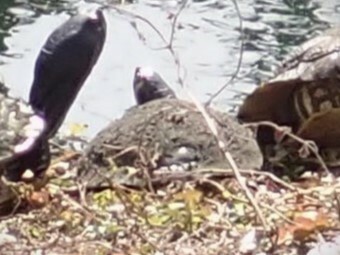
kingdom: Animalia
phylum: Chordata
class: Testudines
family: Emydidae
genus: Trachemys
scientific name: Trachemys scripta
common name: Slider
